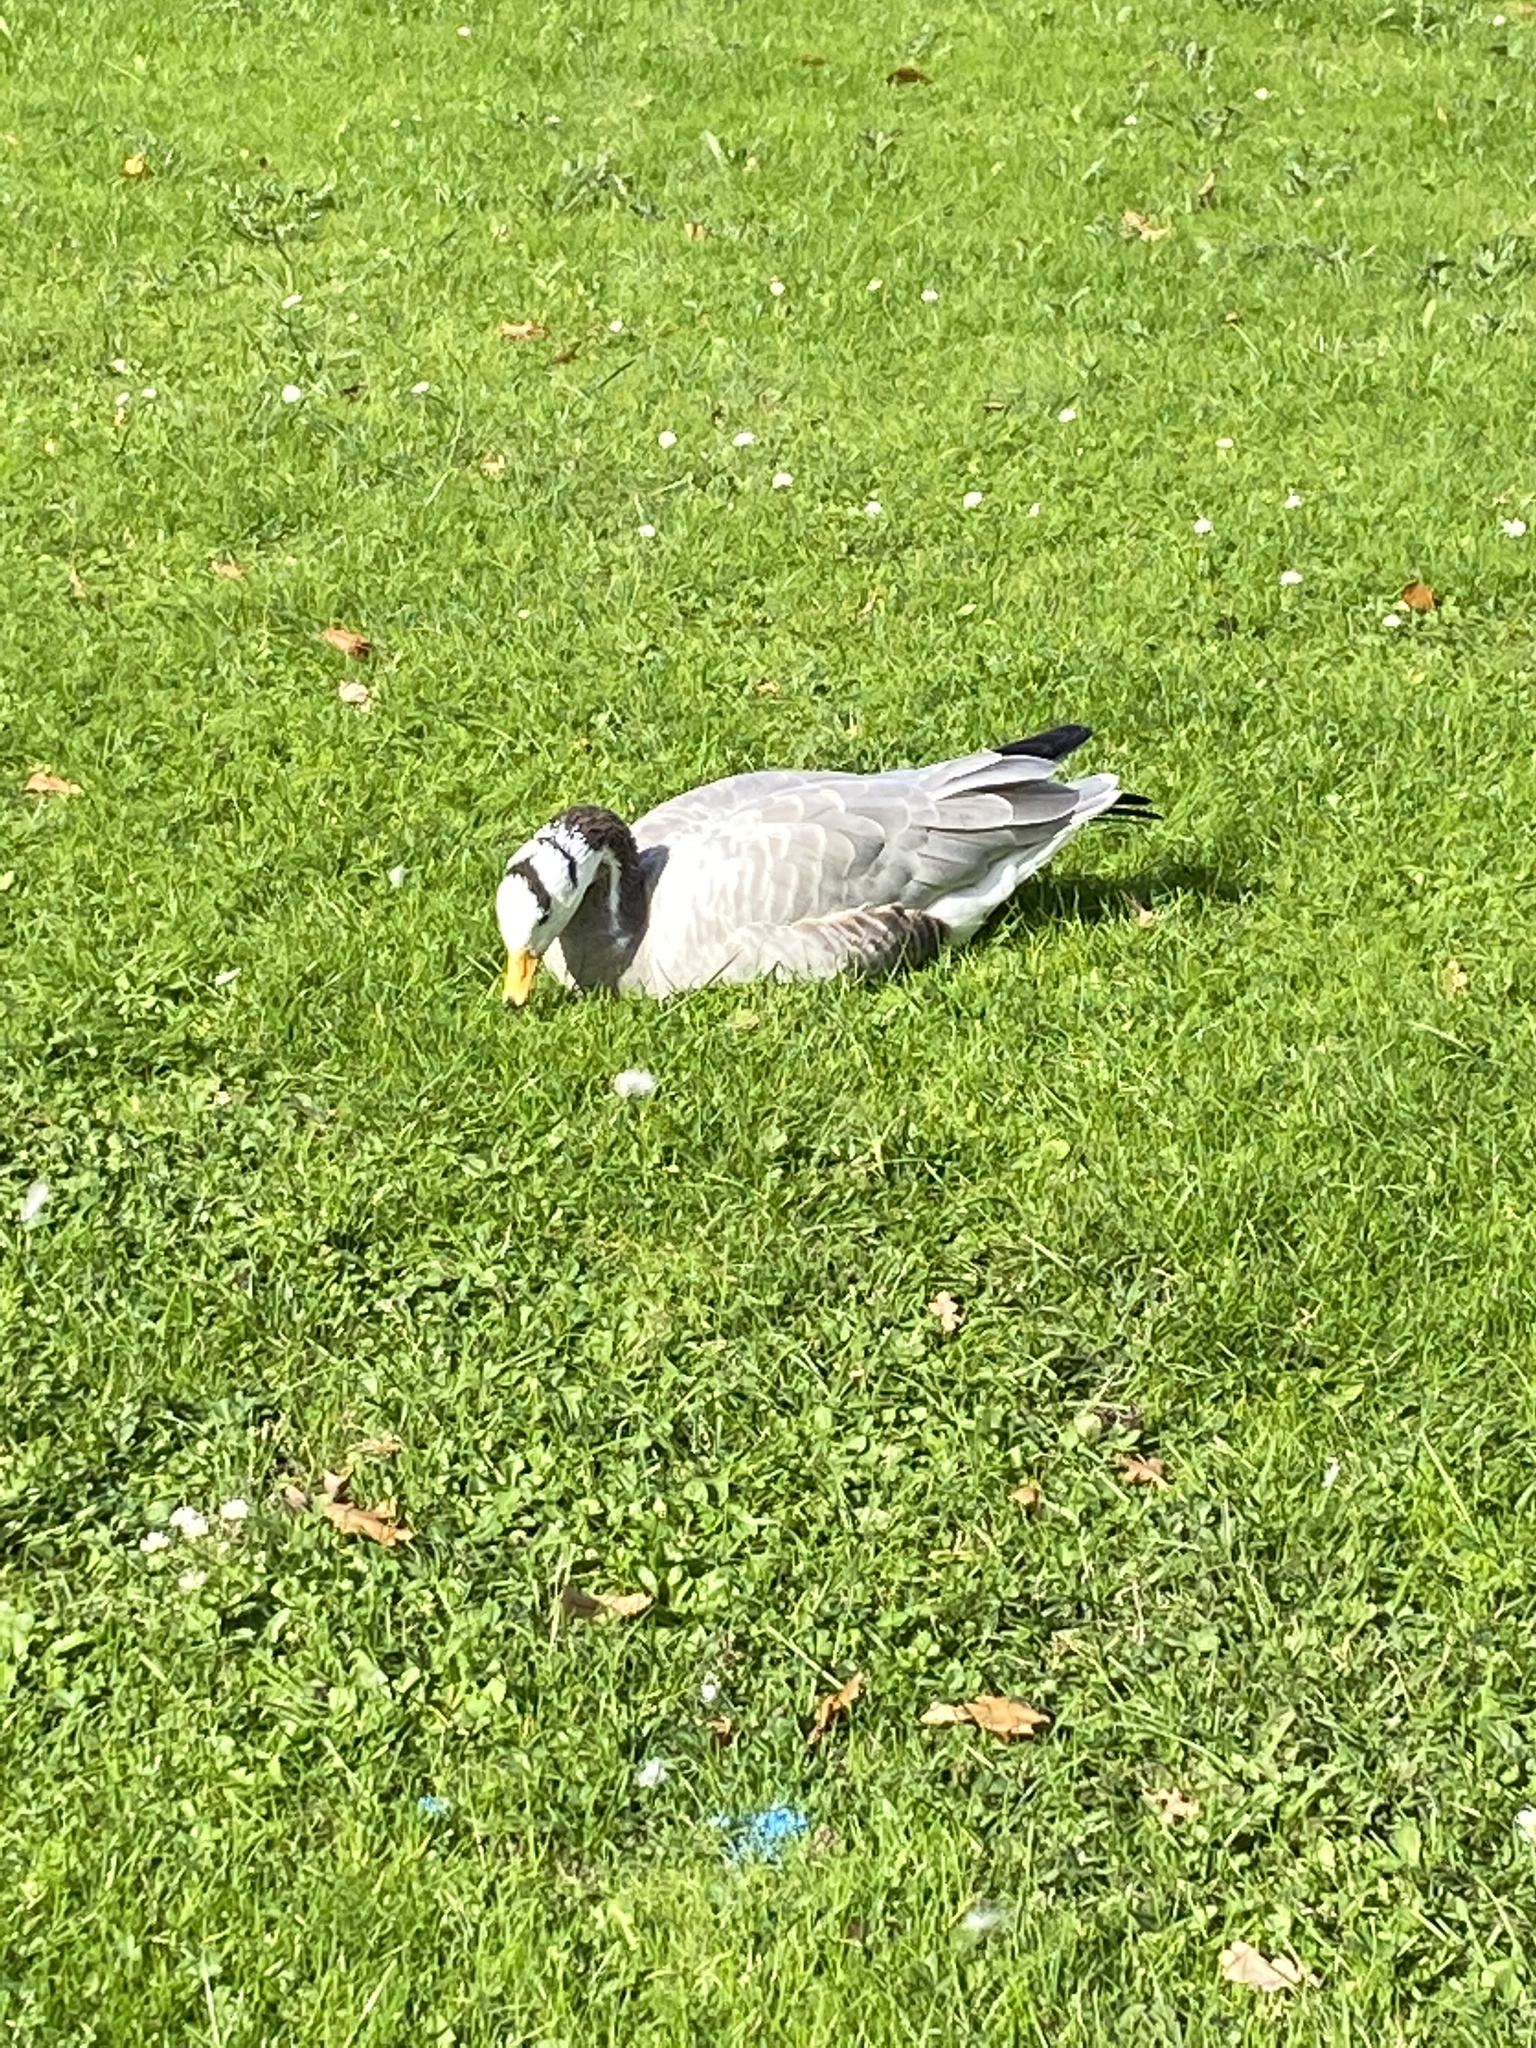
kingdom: Animalia
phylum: Chordata
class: Aves
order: Anseriformes
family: Anatidae
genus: Anser
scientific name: Anser indicus
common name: Bar-headed goose
